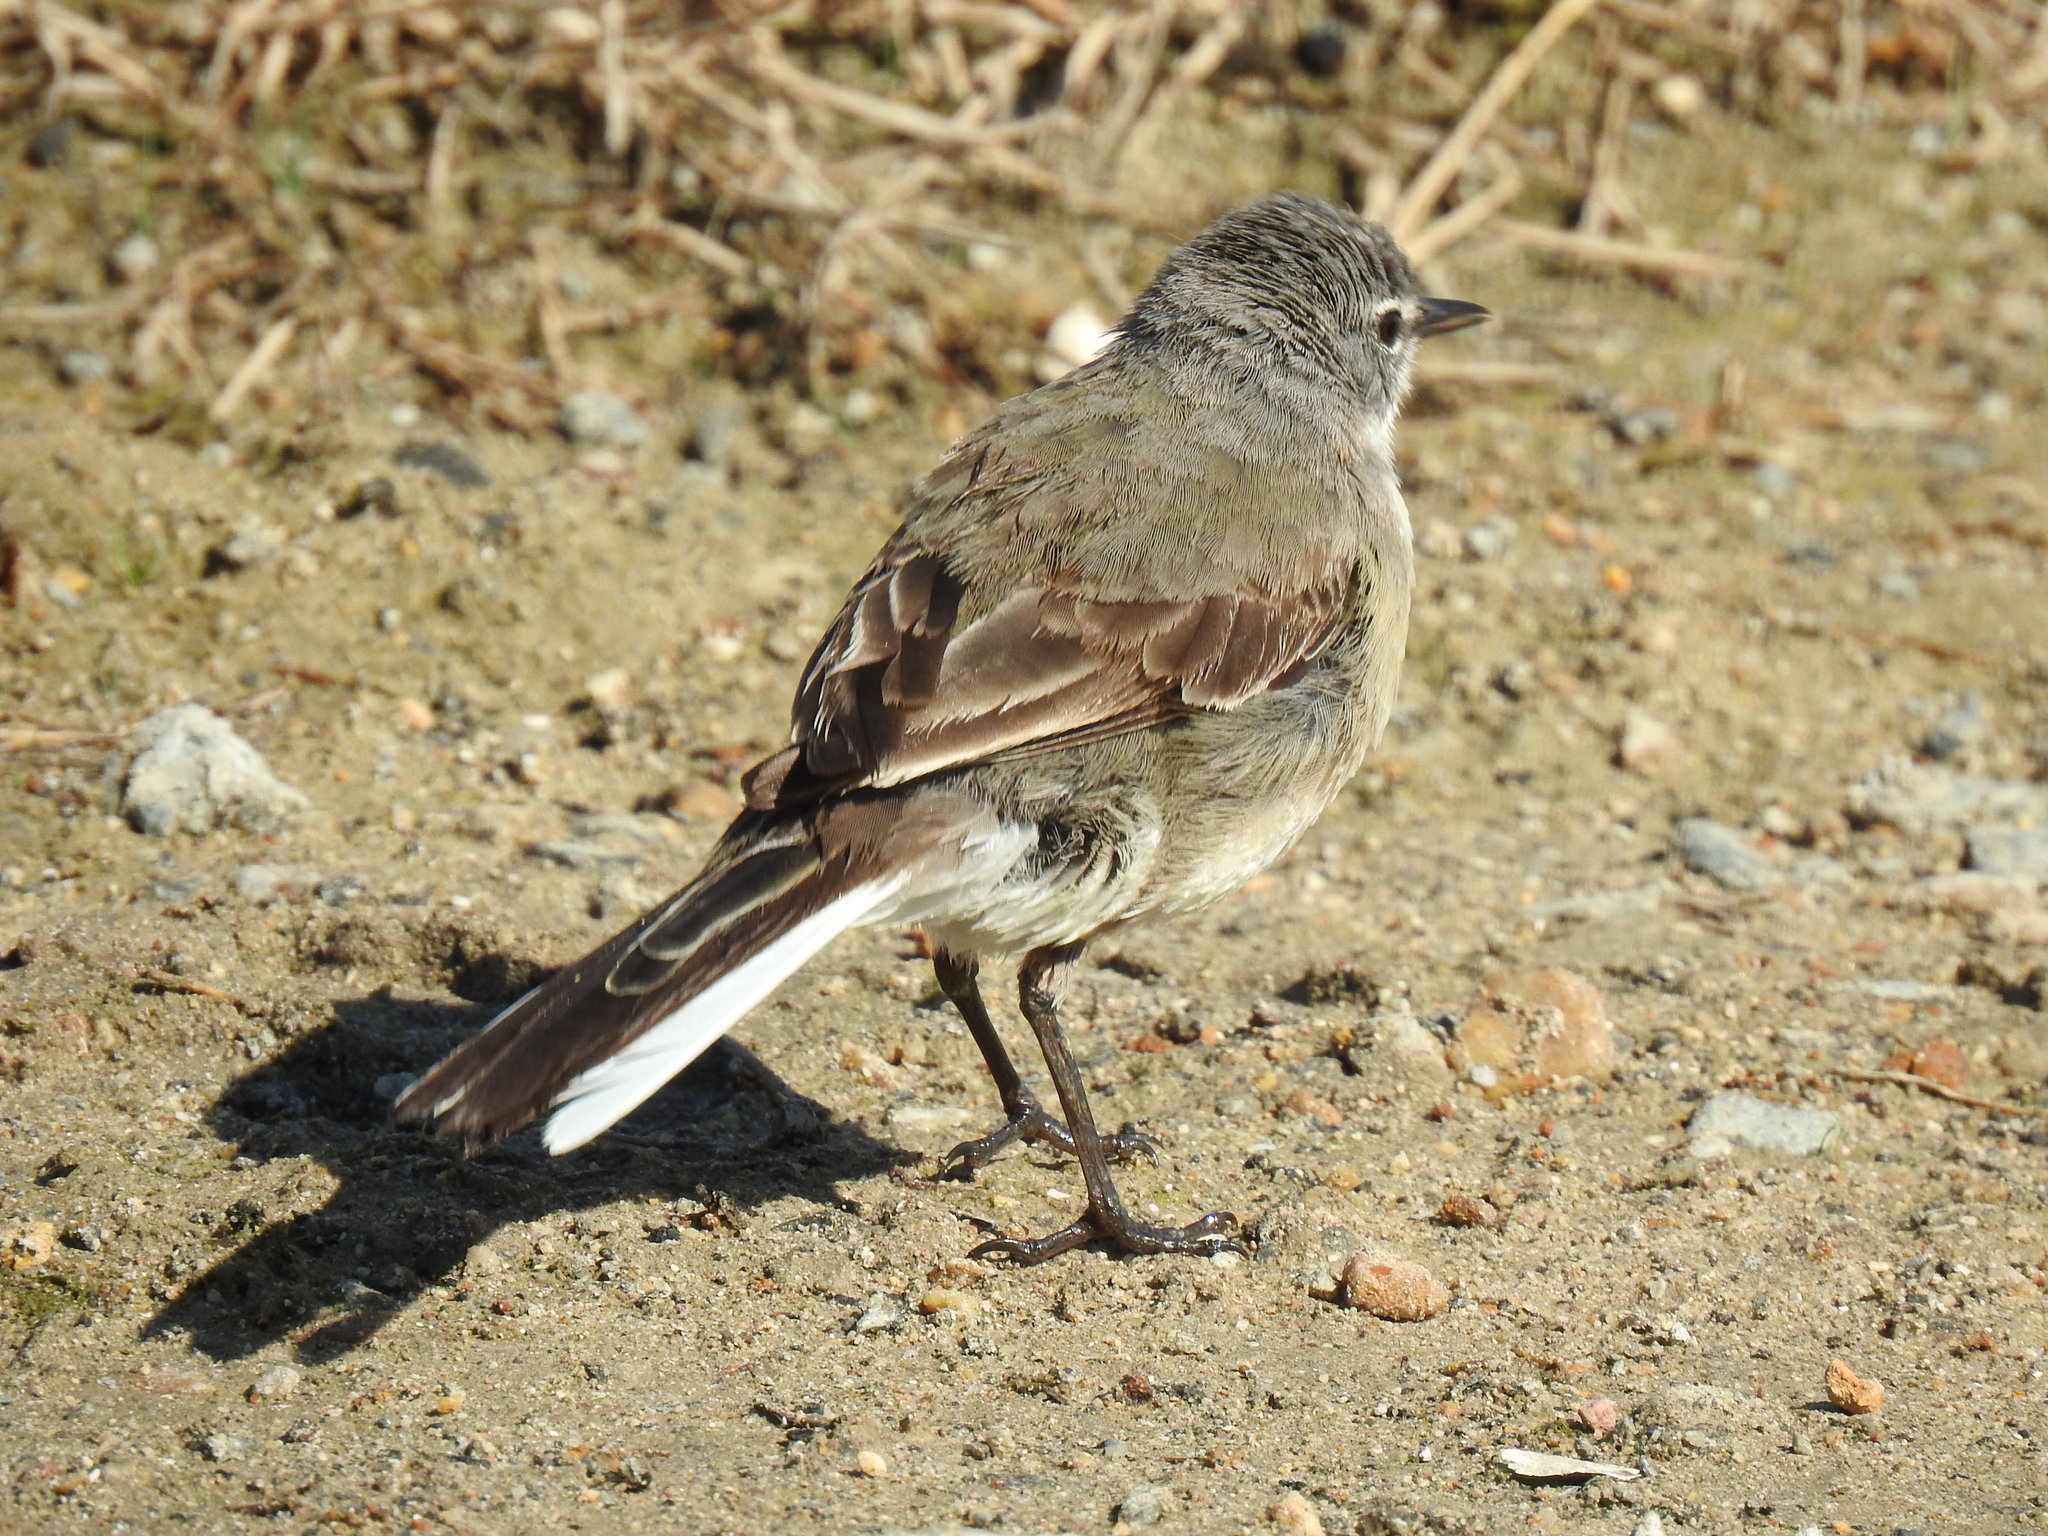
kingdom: Animalia
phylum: Chordata
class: Aves
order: Passeriformes
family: Motacillidae
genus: Motacilla
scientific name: Motacilla capensis
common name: Cape wagtail
